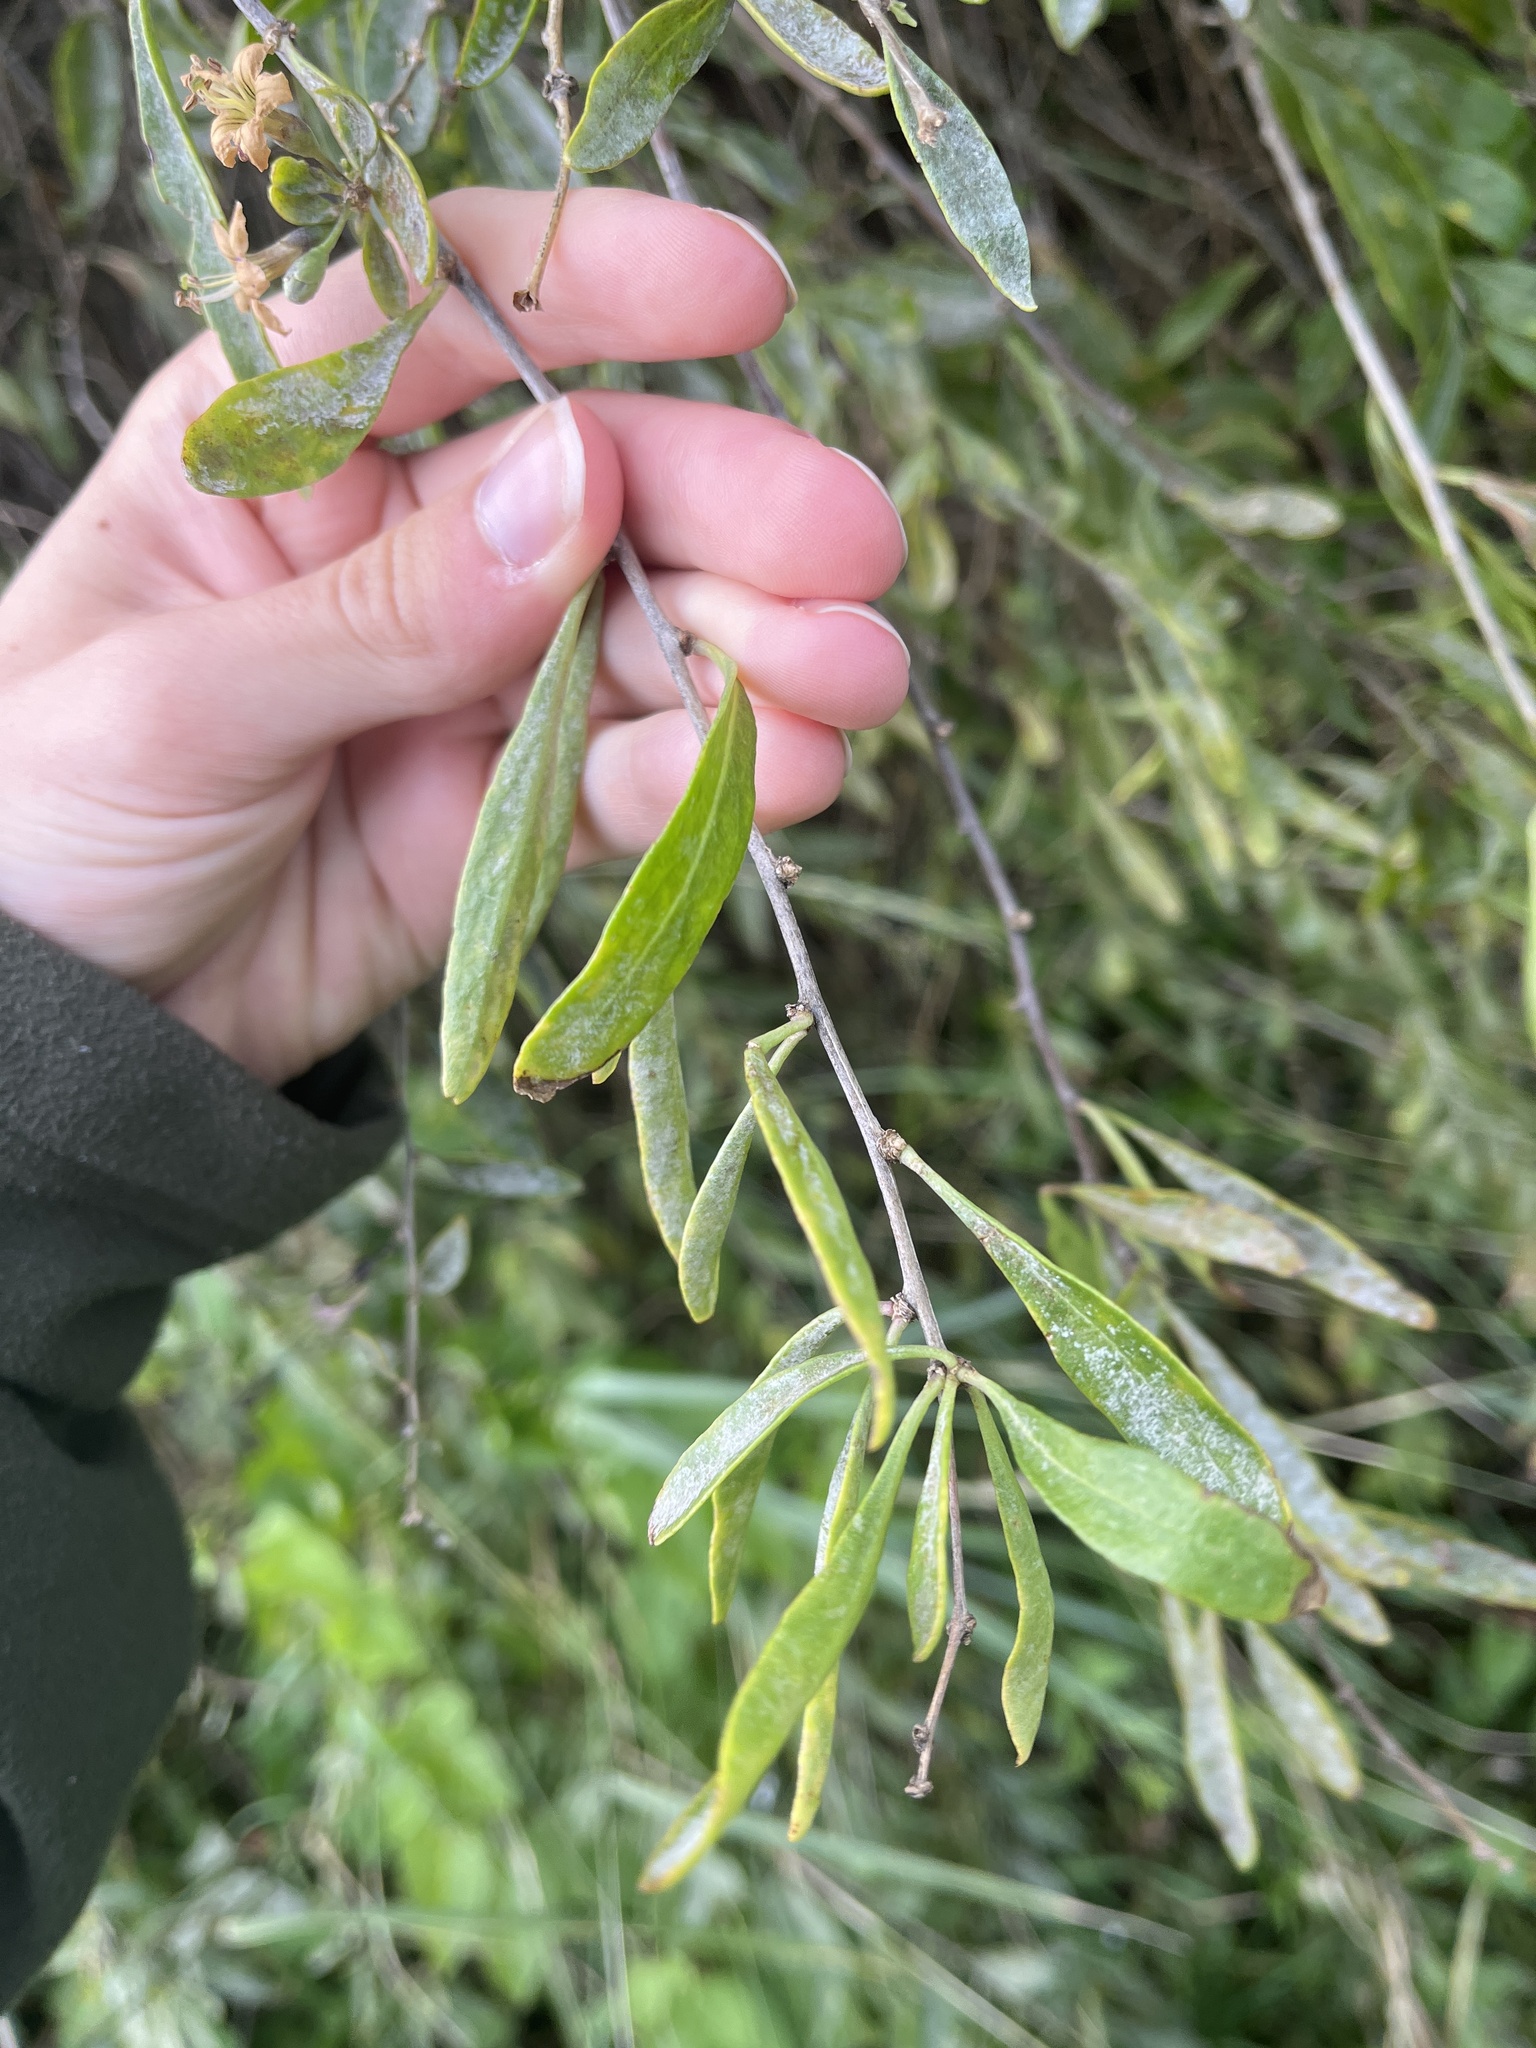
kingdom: Fungi
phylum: Ascomycota
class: Leotiomycetes
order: Helotiales
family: Erysiphaceae
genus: Erysiphe
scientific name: Erysiphe mougeotii
